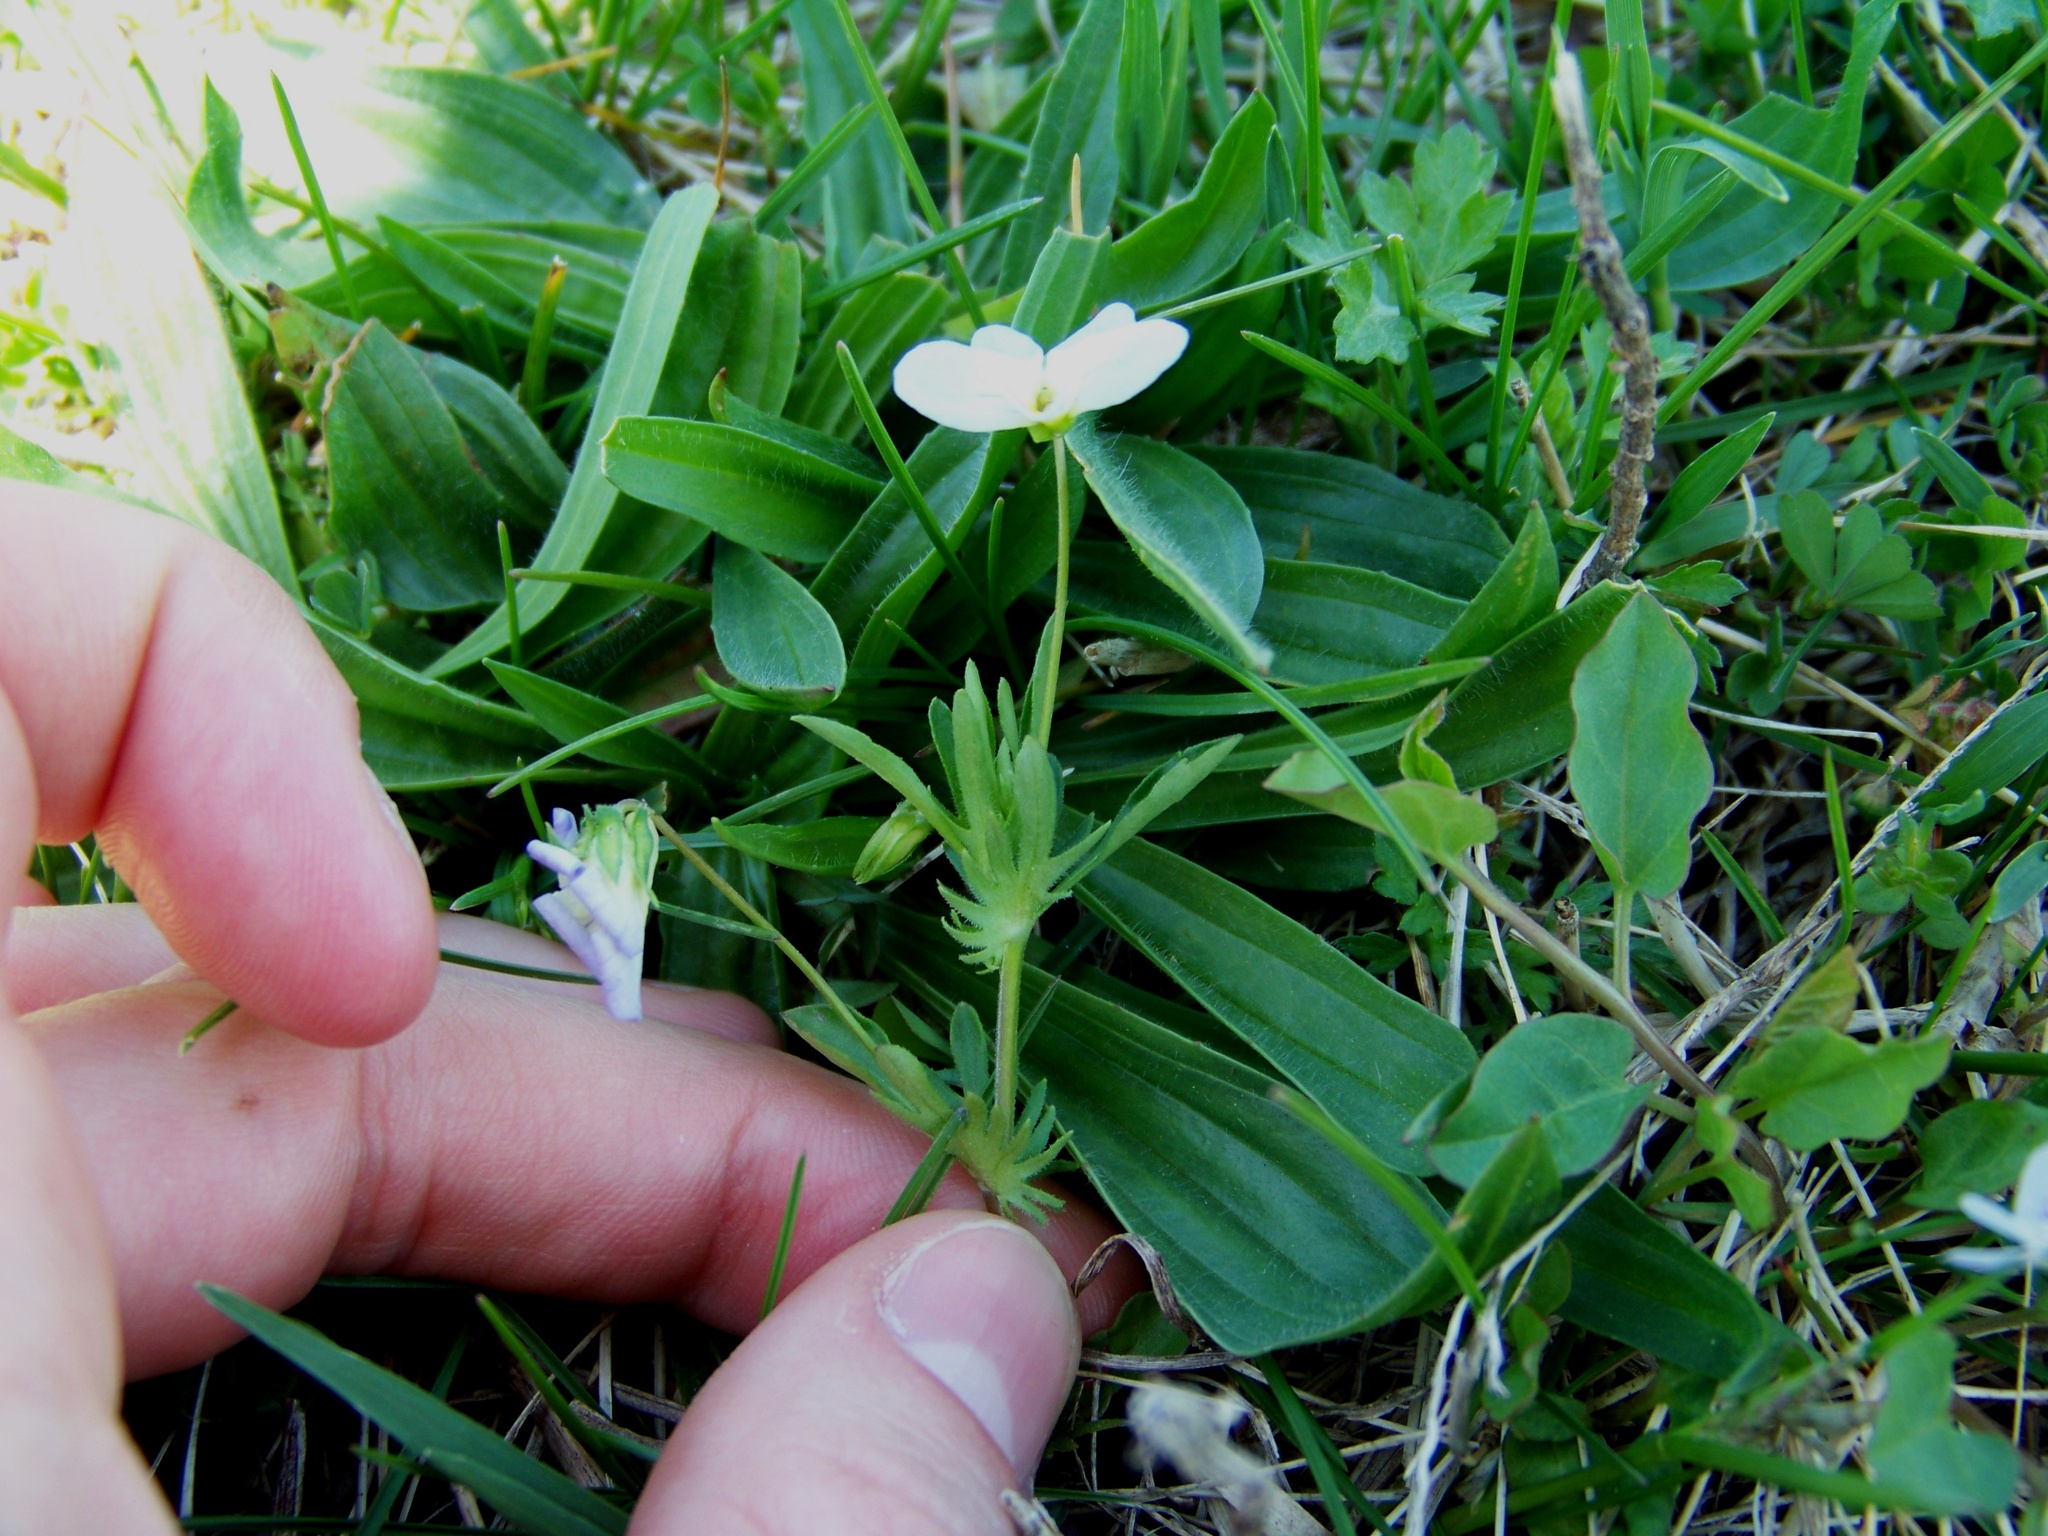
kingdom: Plantae
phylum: Tracheophyta
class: Magnoliopsida
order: Malpighiales
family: Violaceae
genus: Viola
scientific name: Viola arvensis
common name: Field pansy
